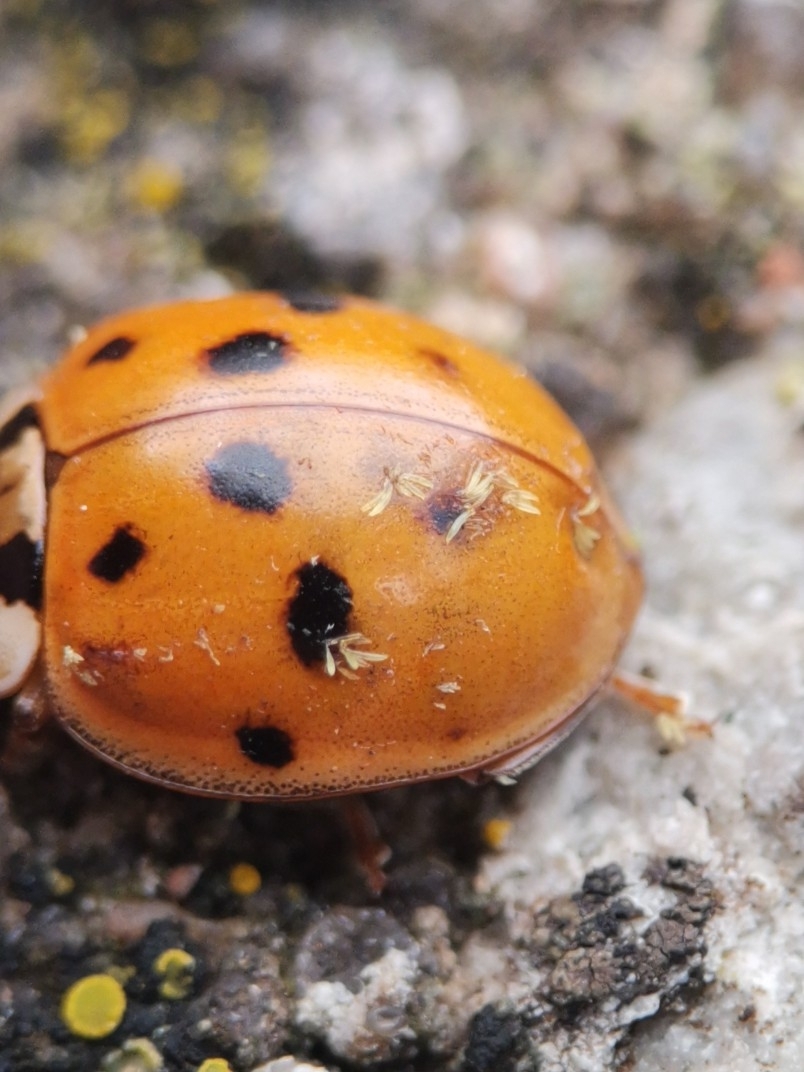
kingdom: Fungi
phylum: Ascomycota
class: Laboulbeniomycetes
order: Laboulbeniales
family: Laboulbeniaceae
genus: Hesperomyces
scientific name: Hesperomyces harmoniae
